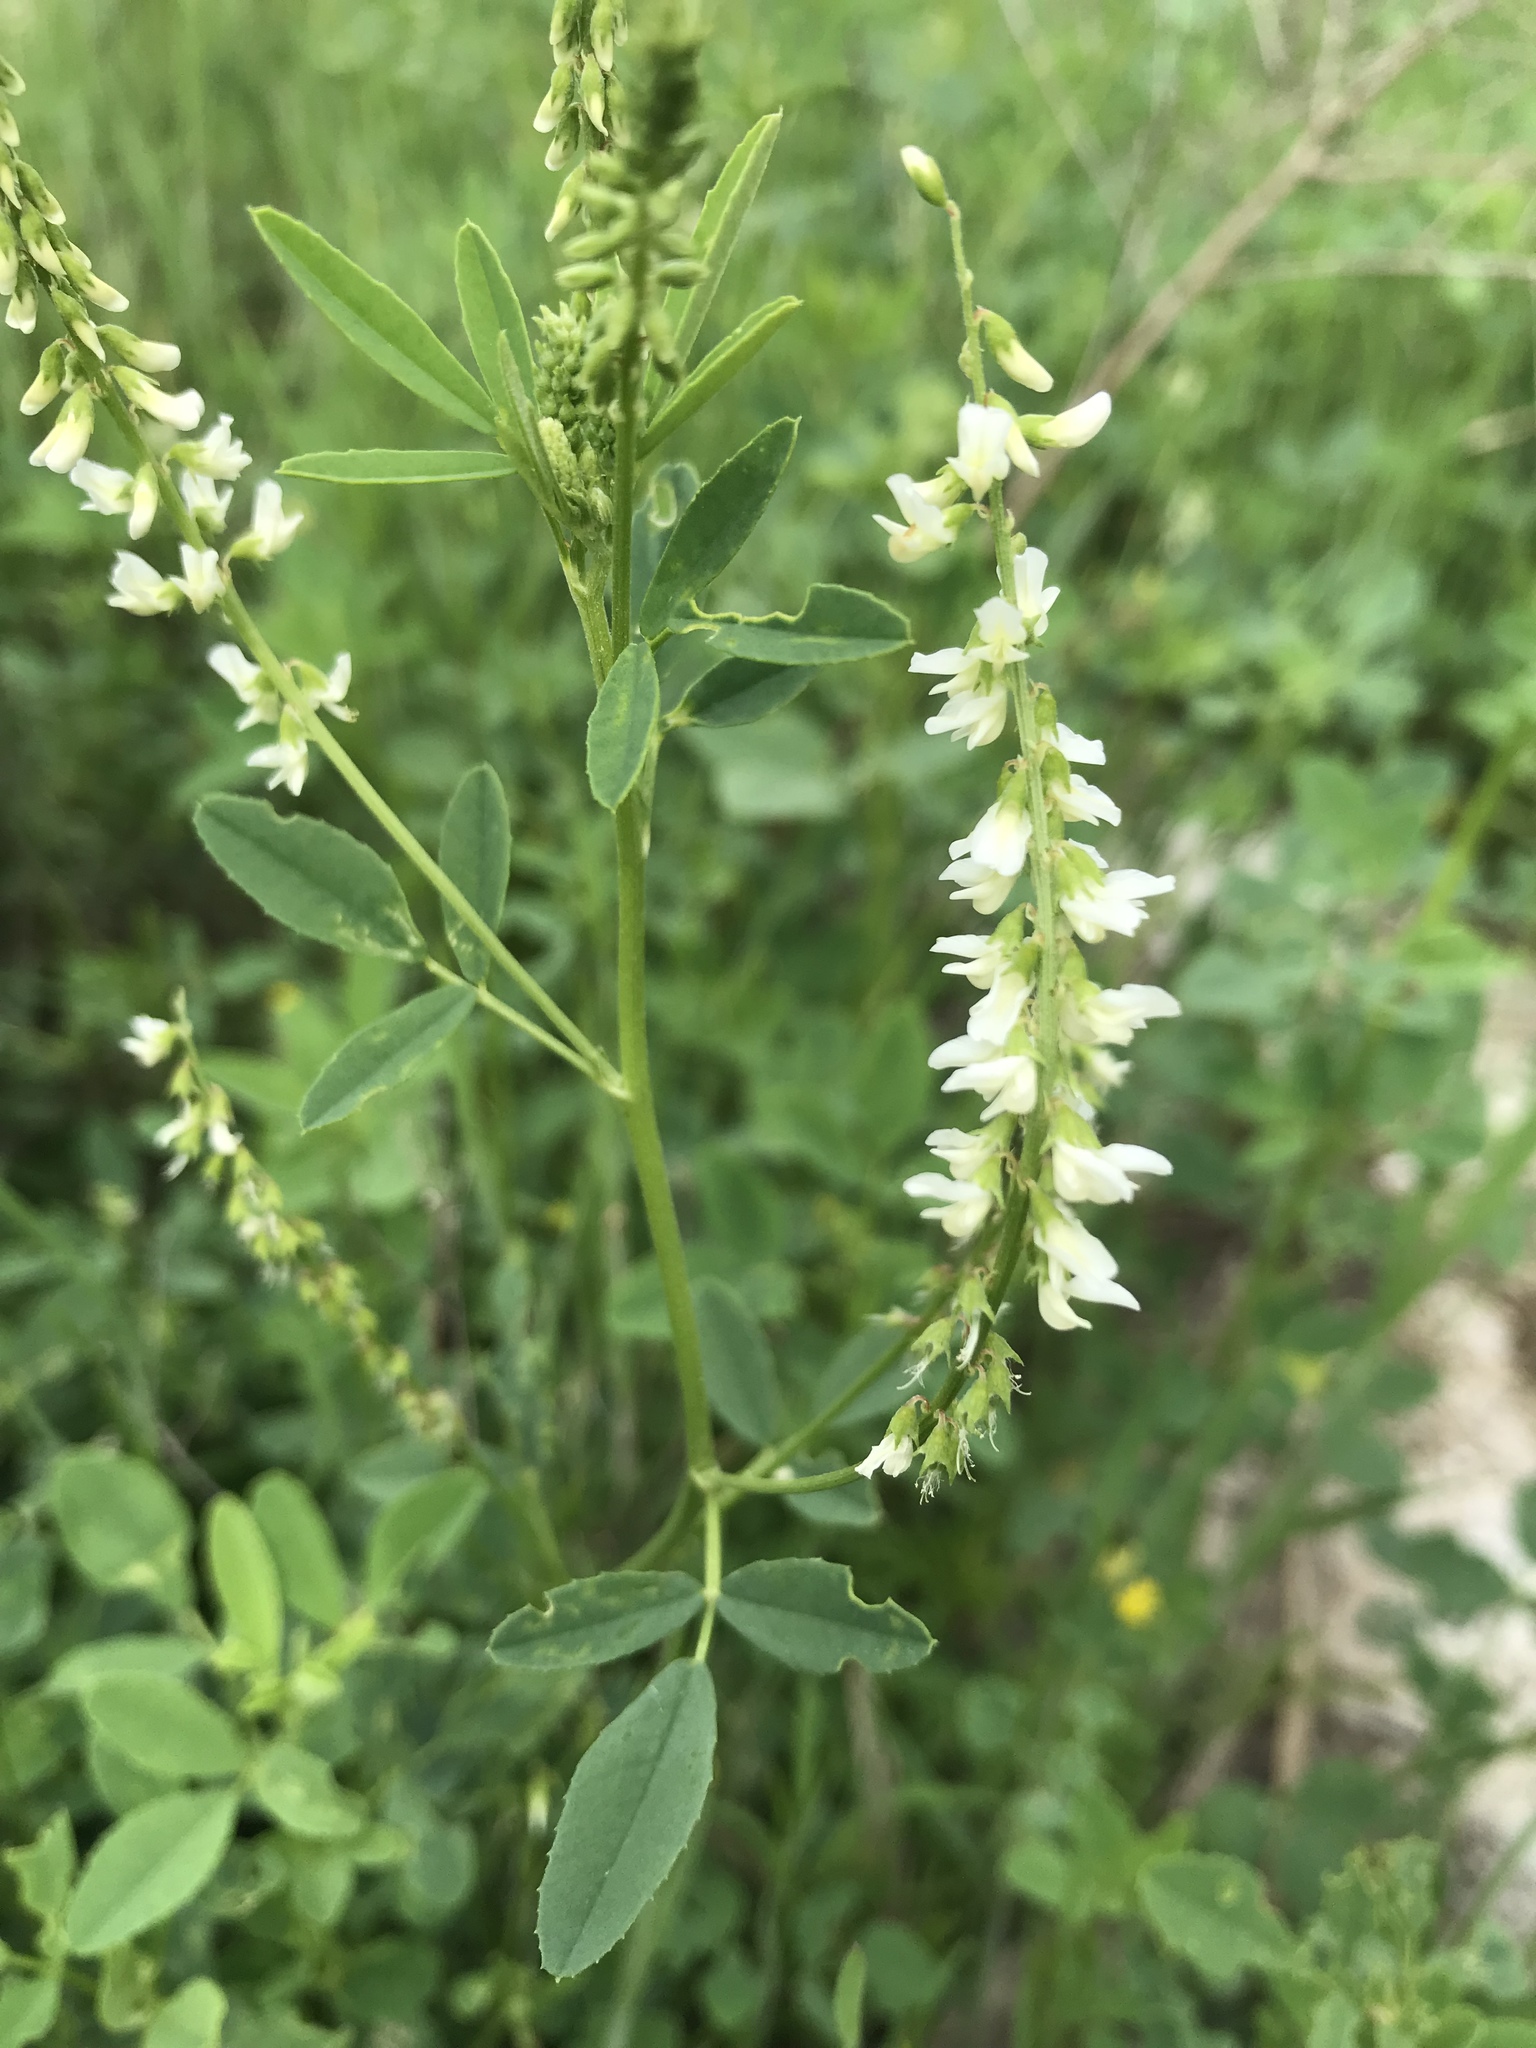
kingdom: Plantae
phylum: Tracheophyta
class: Magnoliopsida
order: Fabales
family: Fabaceae
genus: Melilotus
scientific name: Melilotus albus
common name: White melilot
